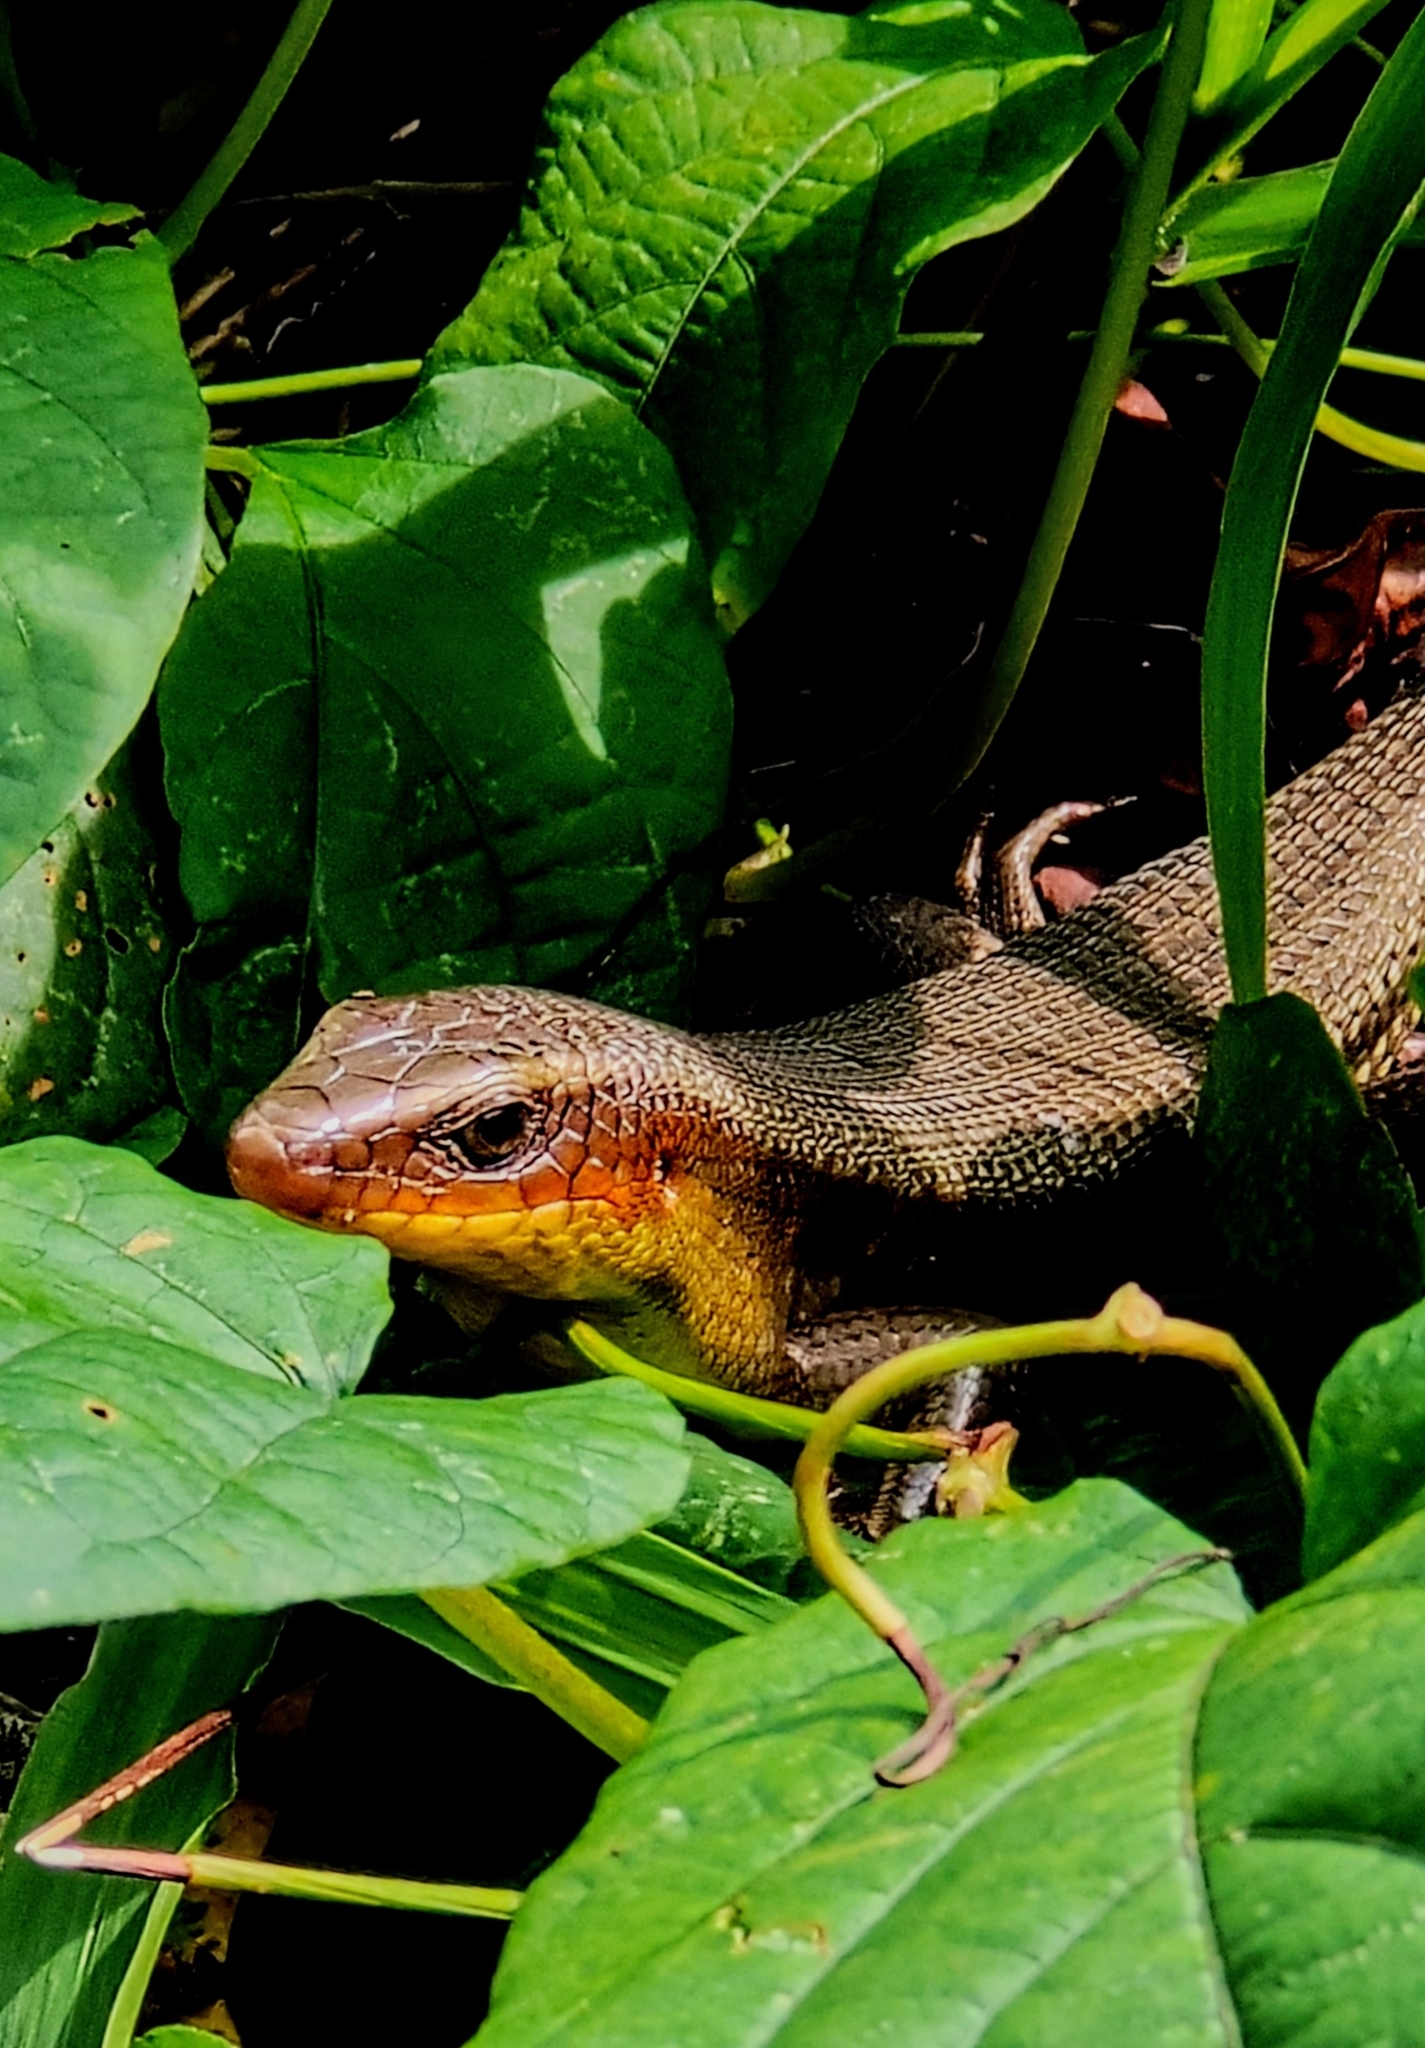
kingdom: Animalia
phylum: Chordata
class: Squamata
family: Scincidae
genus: Eutropis
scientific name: Eutropis multifasciata
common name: Common mabuya
